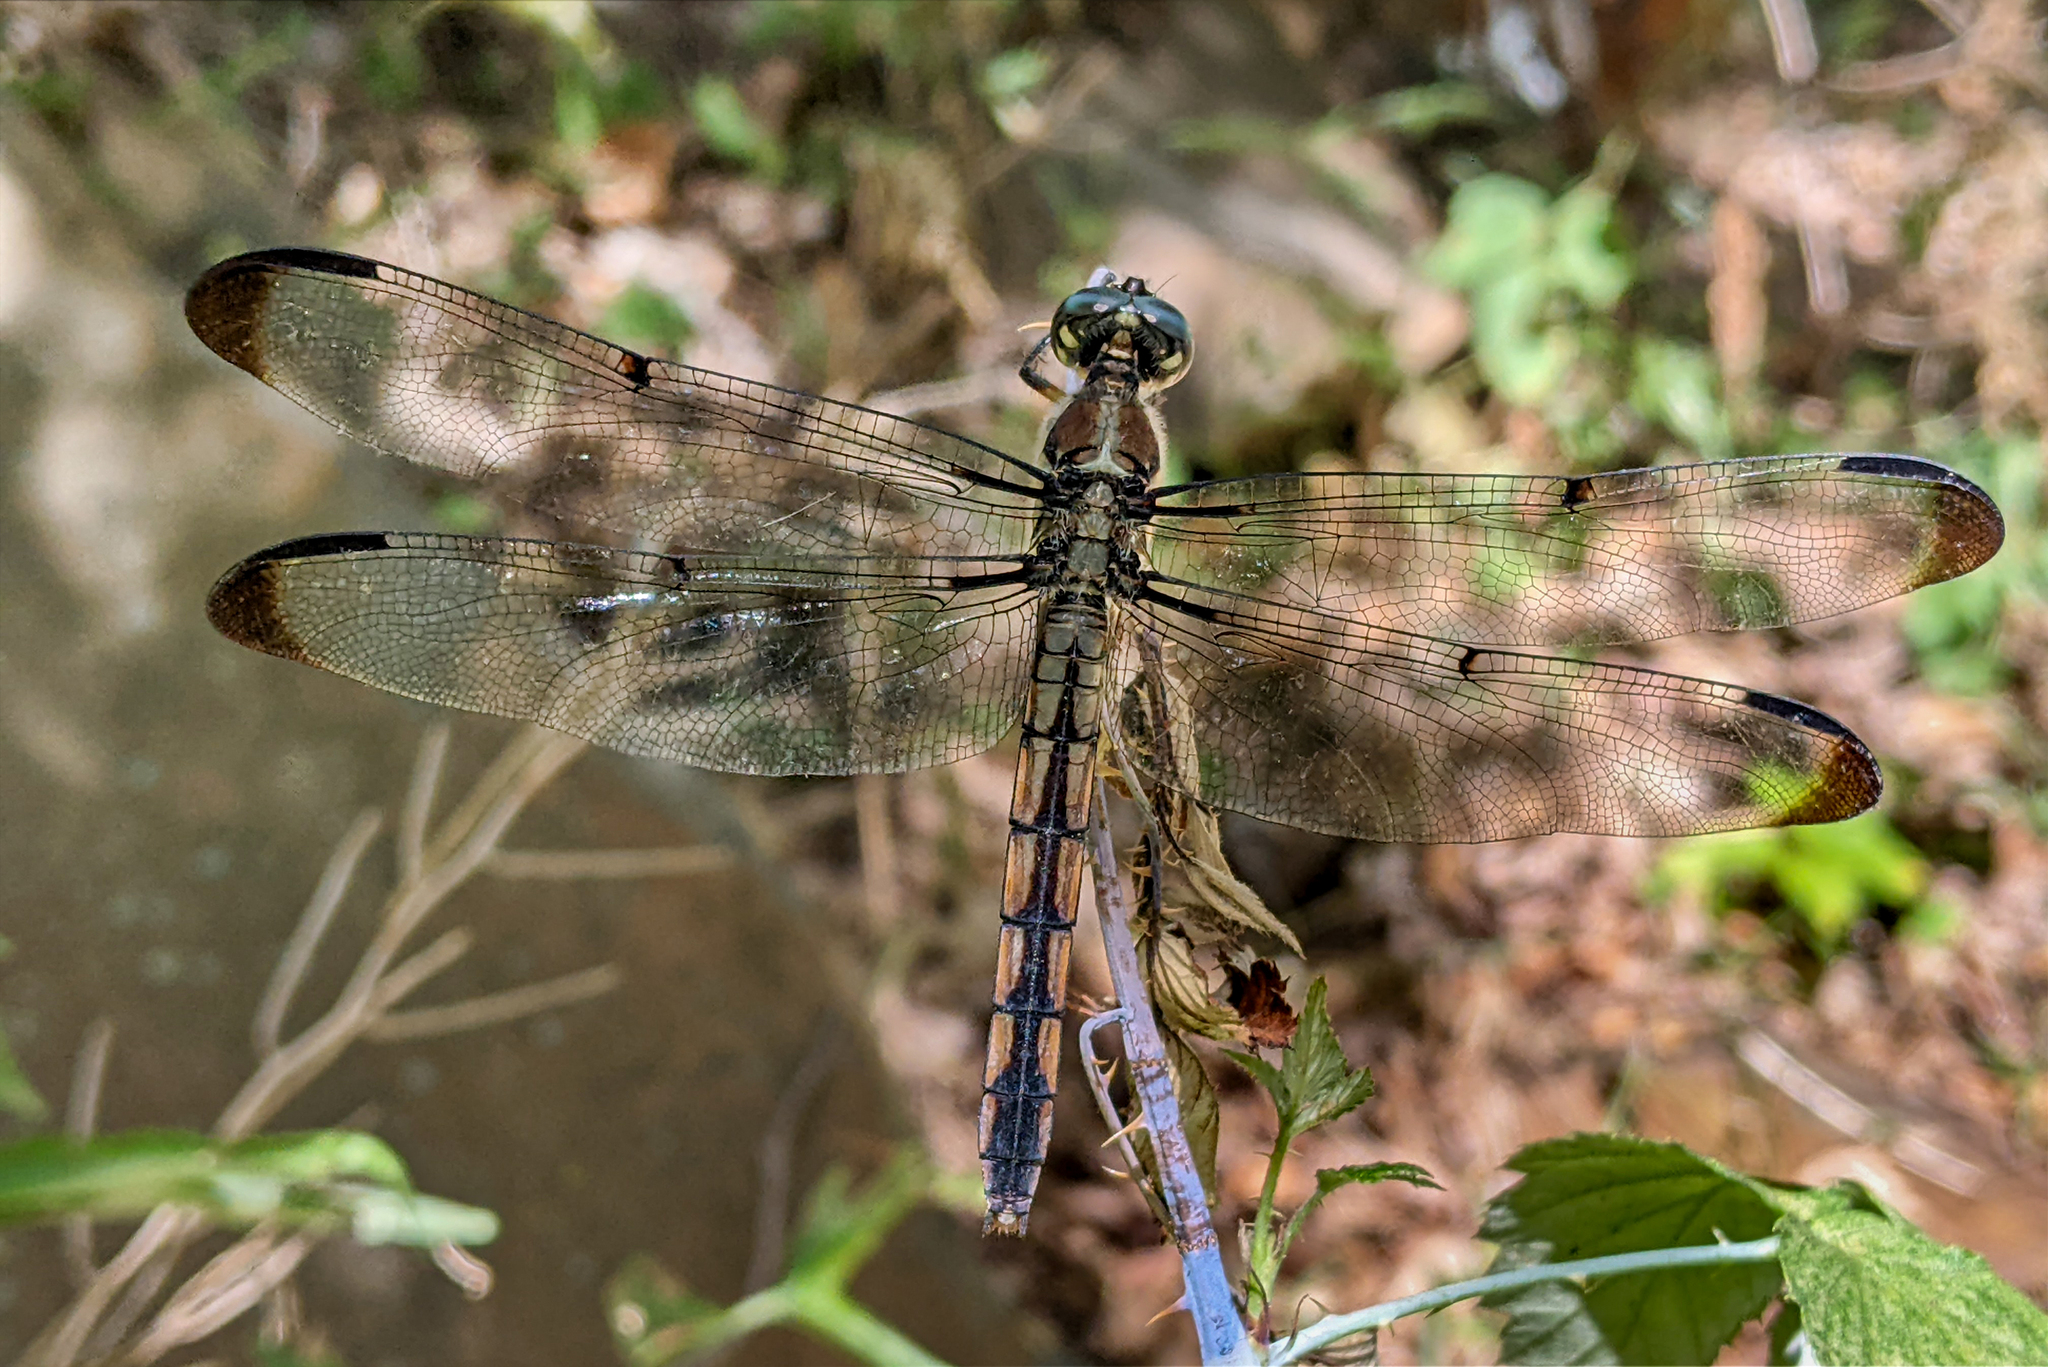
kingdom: Animalia
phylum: Arthropoda
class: Insecta
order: Odonata
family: Libellulidae
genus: Libellula
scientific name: Libellula vibrans
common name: Great blue skimmer
